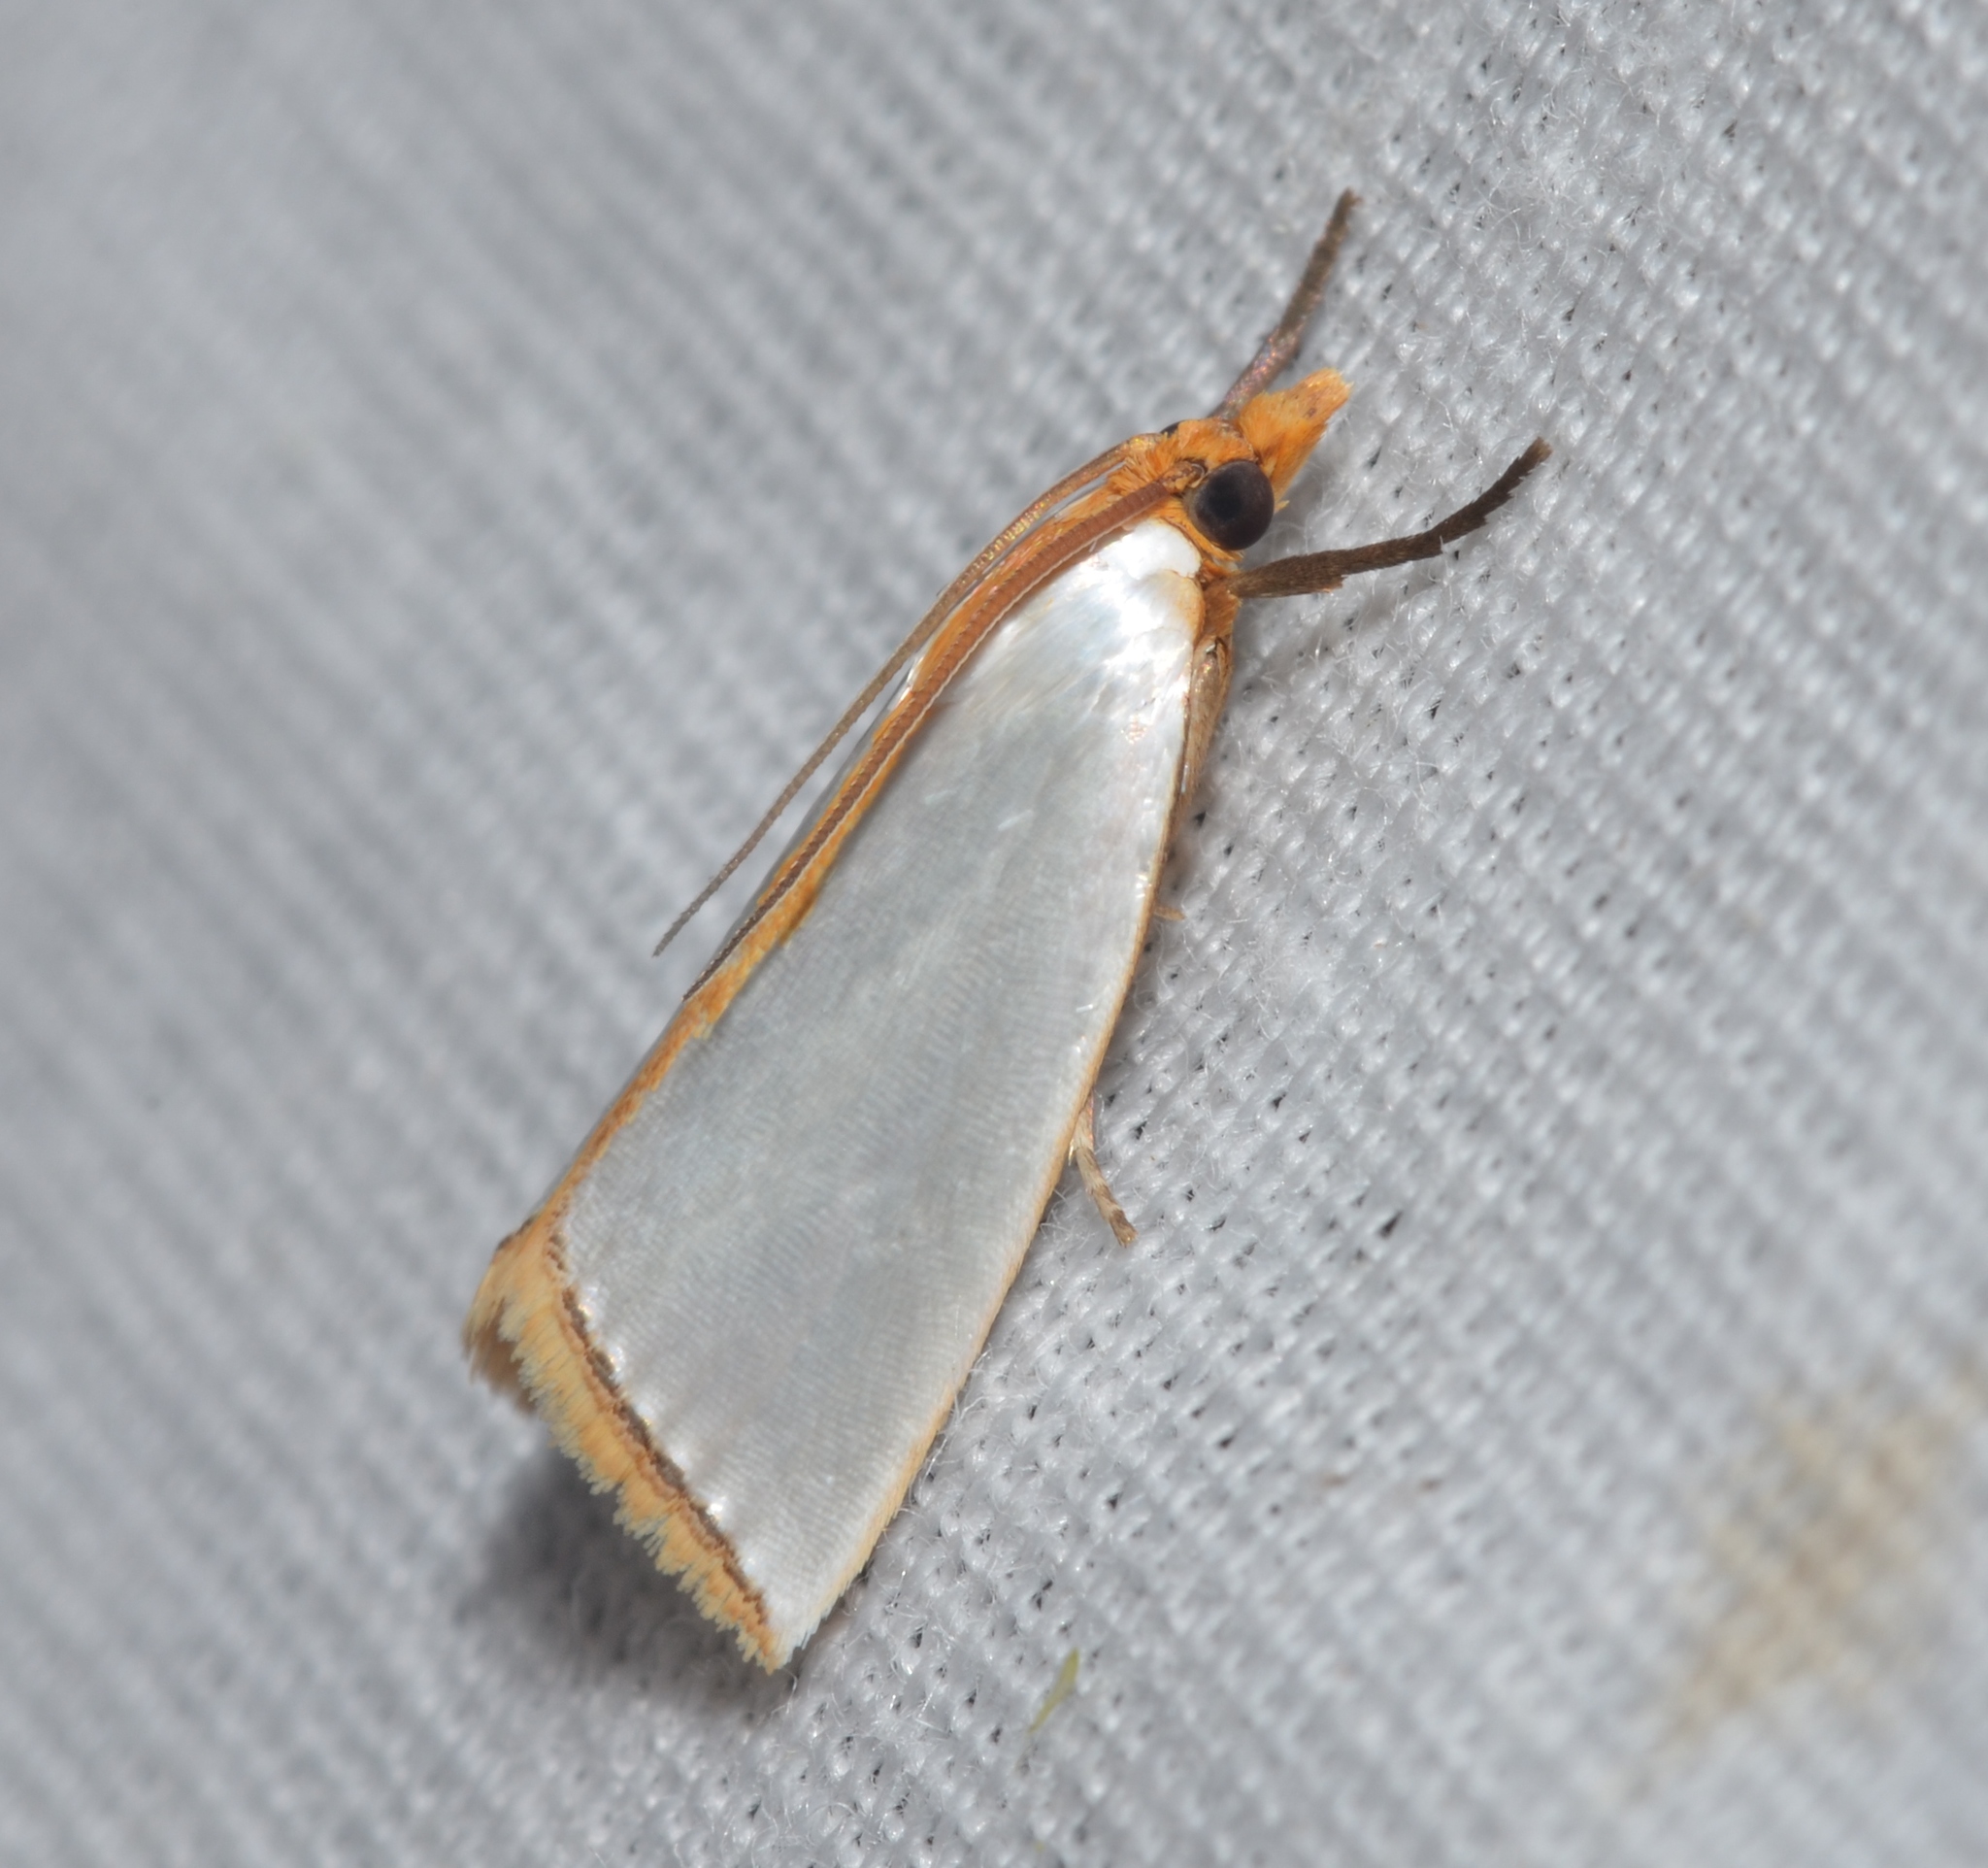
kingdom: Animalia
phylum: Arthropoda
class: Insecta
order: Lepidoptera
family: Crambidae
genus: Argyria
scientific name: Argyria
